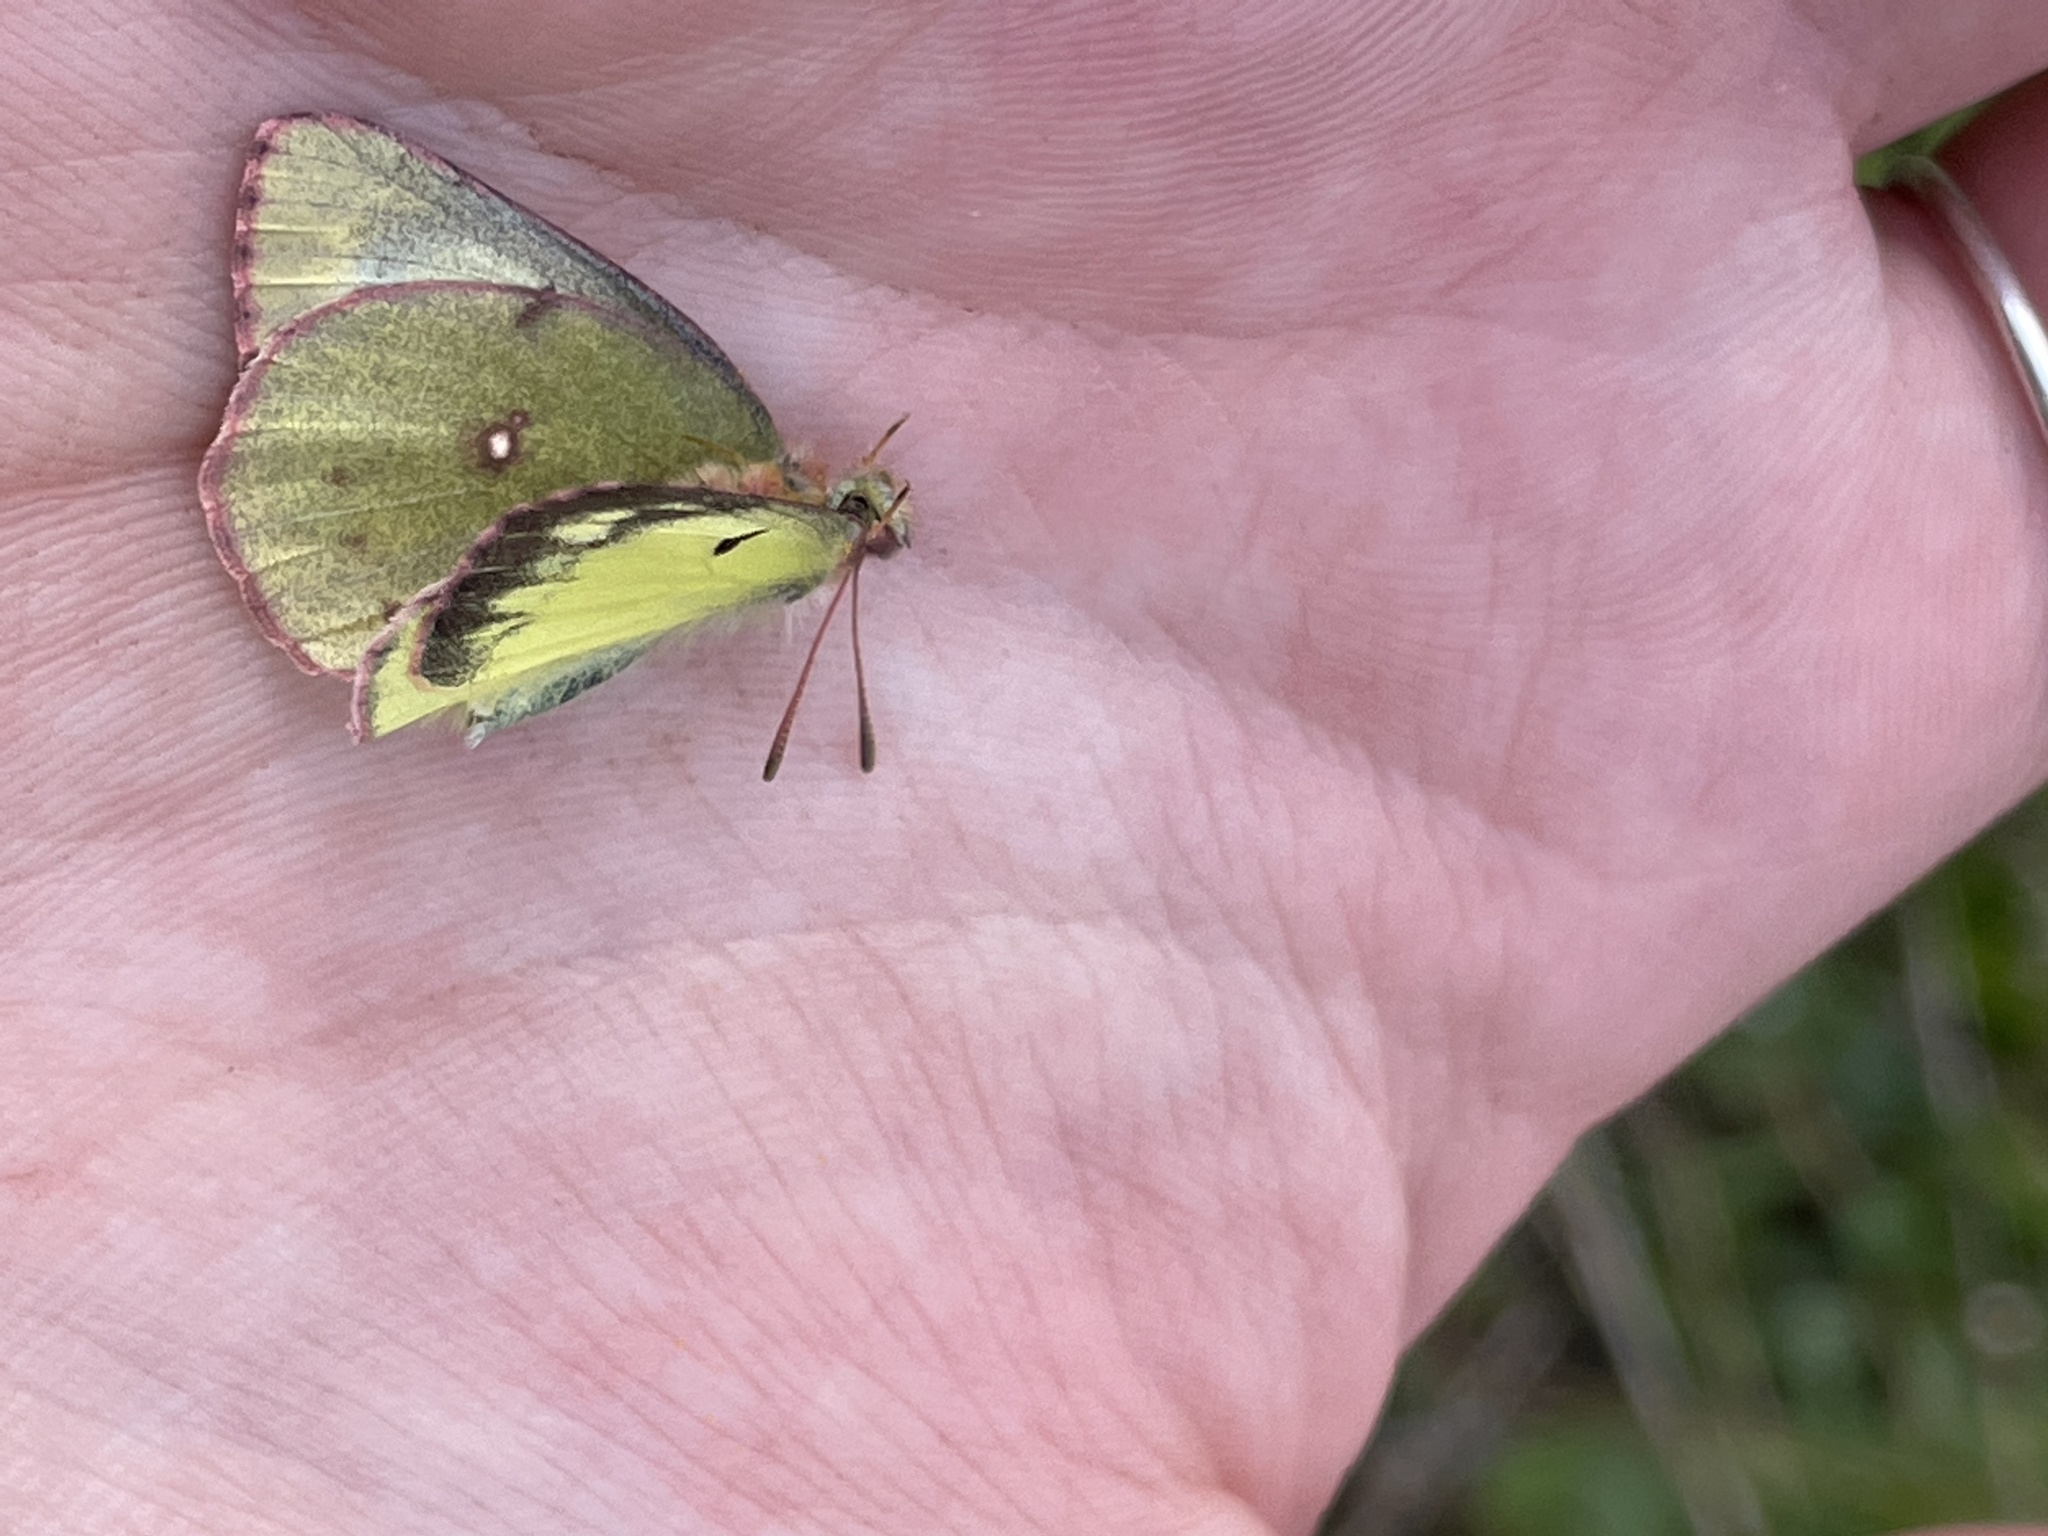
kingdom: Animalia
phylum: Arthropoda
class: Insecta
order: Lepidoptera
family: Pieridae
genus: Colias
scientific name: Colias philodice
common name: Clouded sulphur
